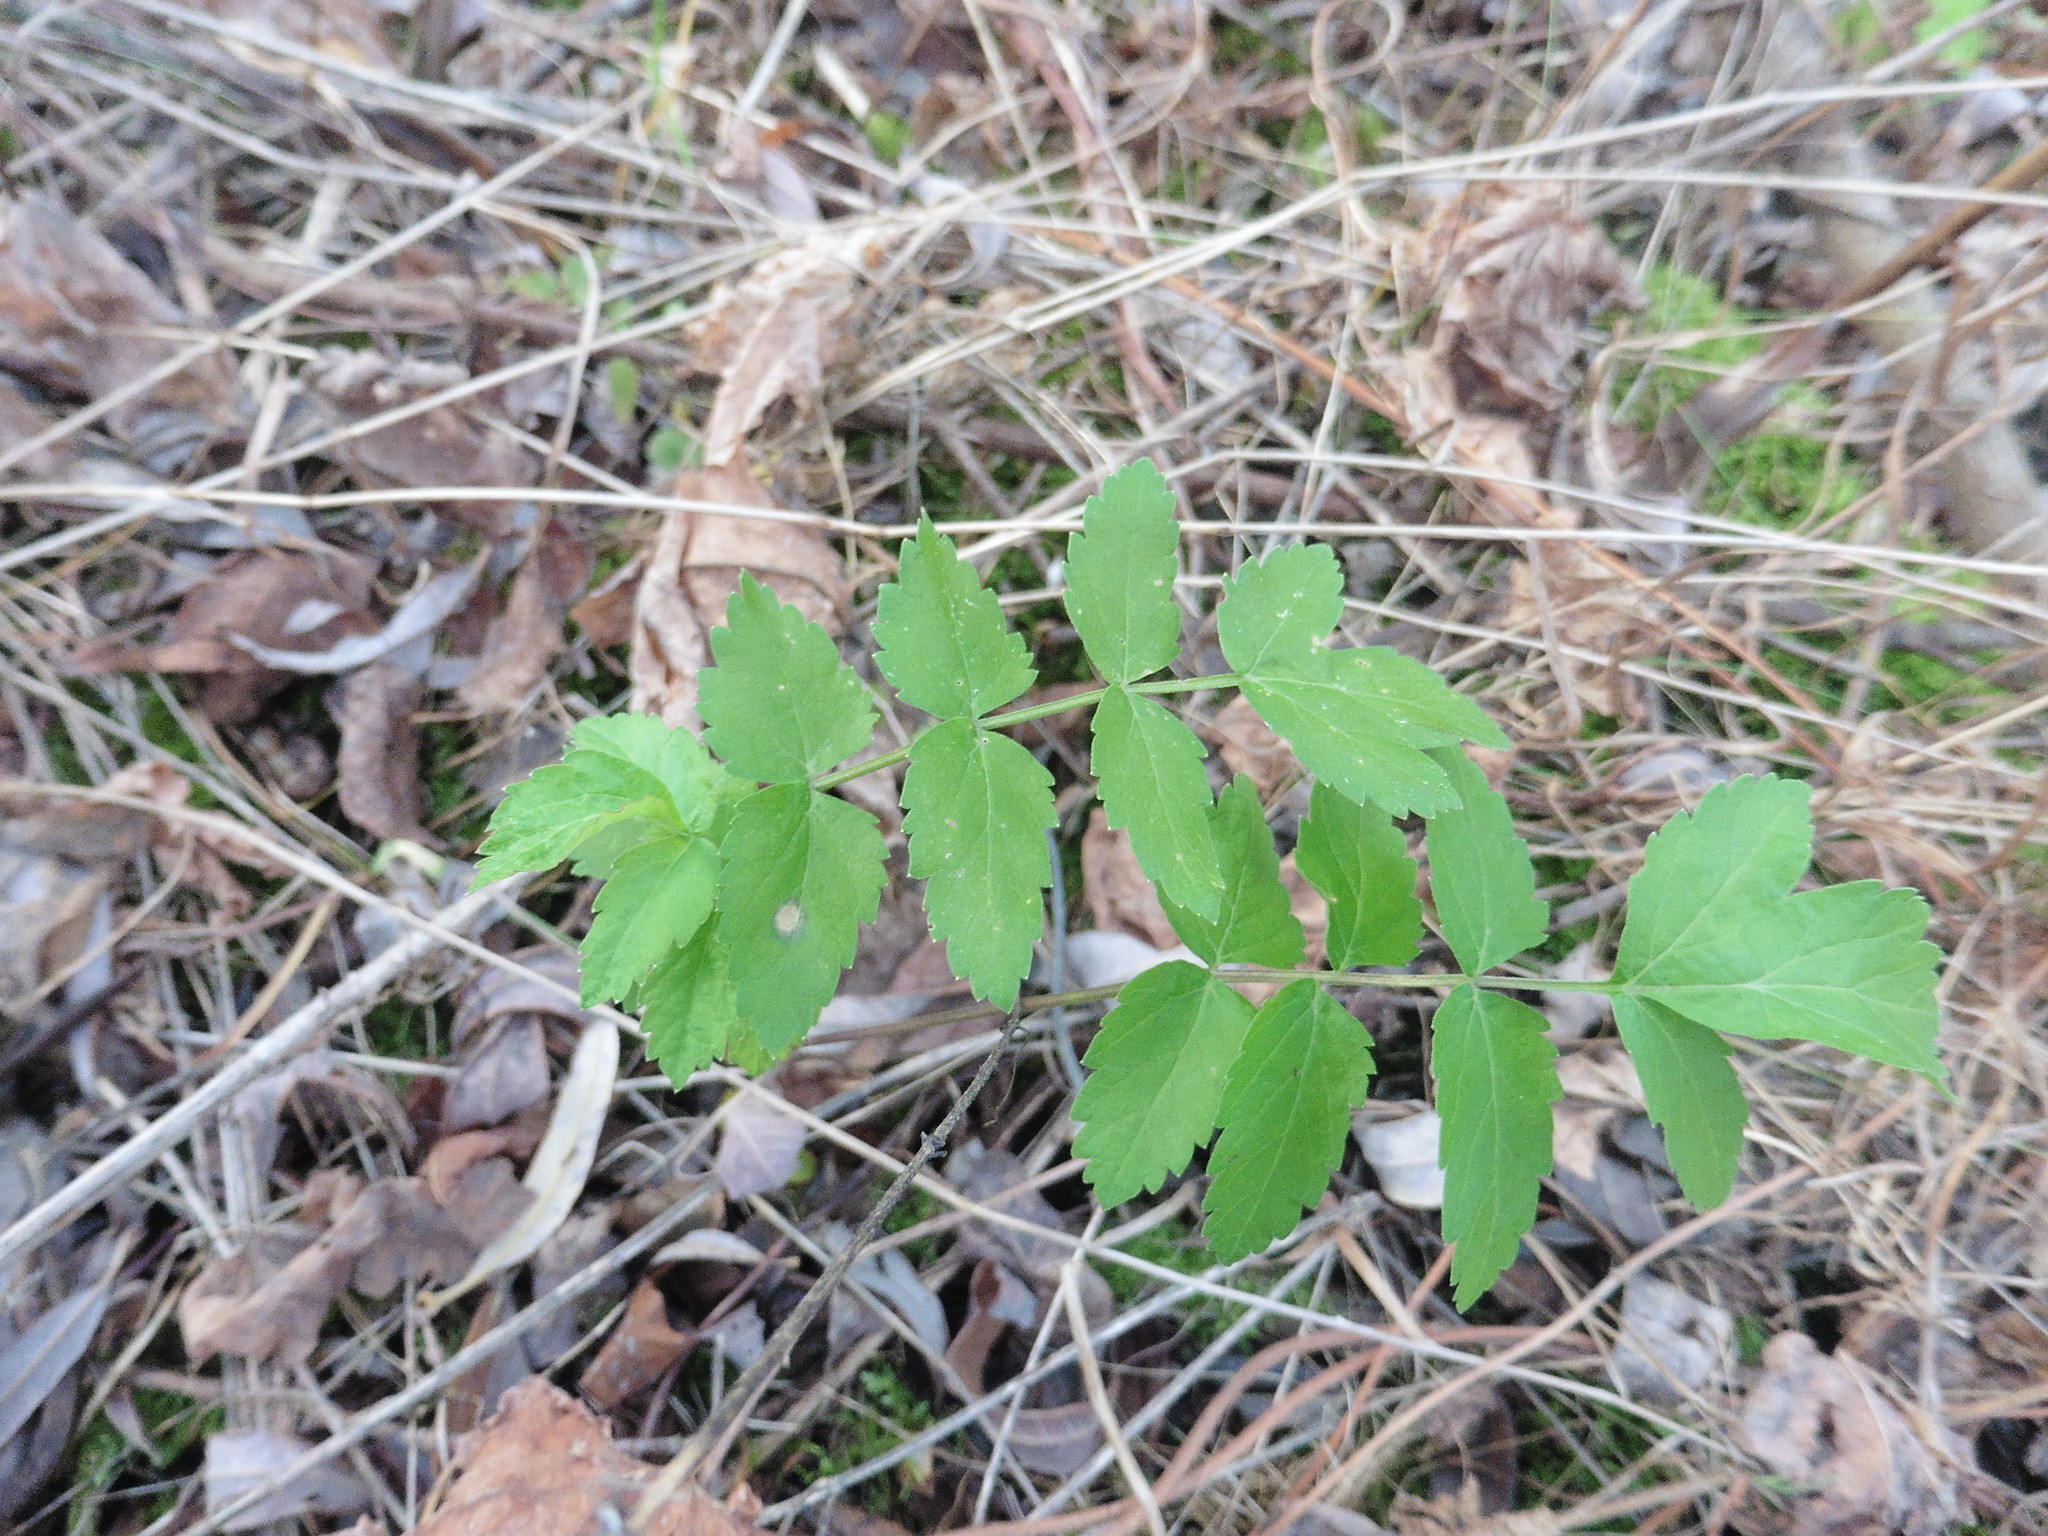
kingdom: Plantae
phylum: Tracheophyta
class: Magnoliopsida
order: Apiales
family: Apiaceae
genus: Pastinaca
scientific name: Pastinaca sativa
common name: Wild parsnip
